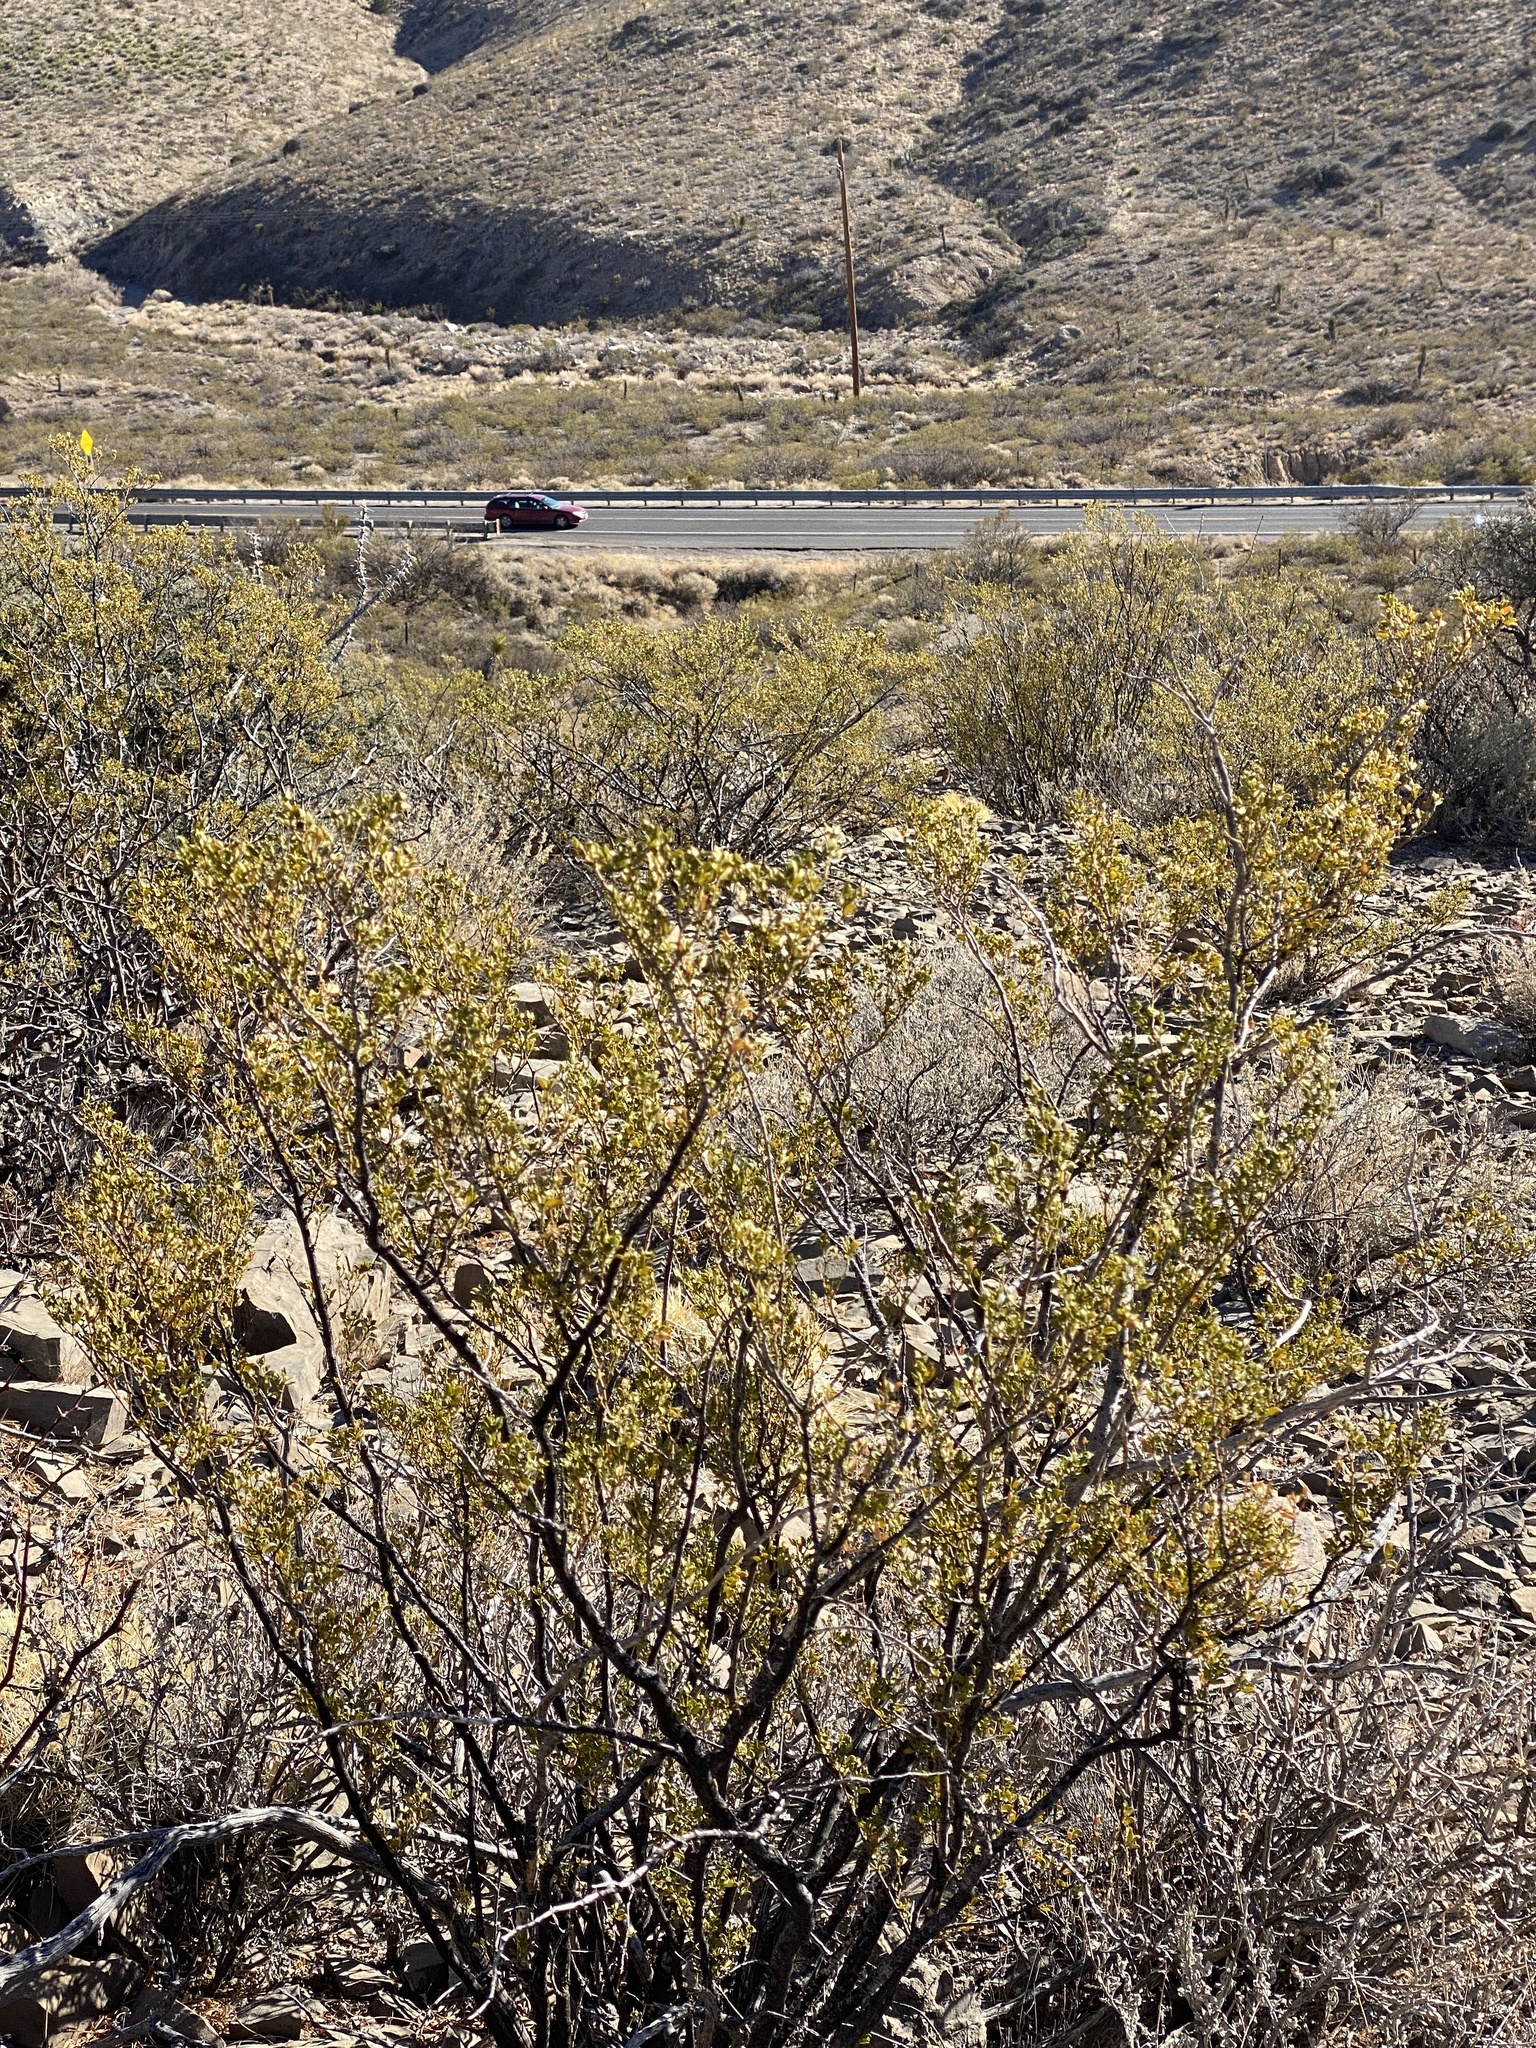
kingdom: Plantae
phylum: Tracheophyta
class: Magnoliopsida
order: Zygophyllales
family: Zygophyllaceae
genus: Larrea
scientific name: Larrea tridentata
